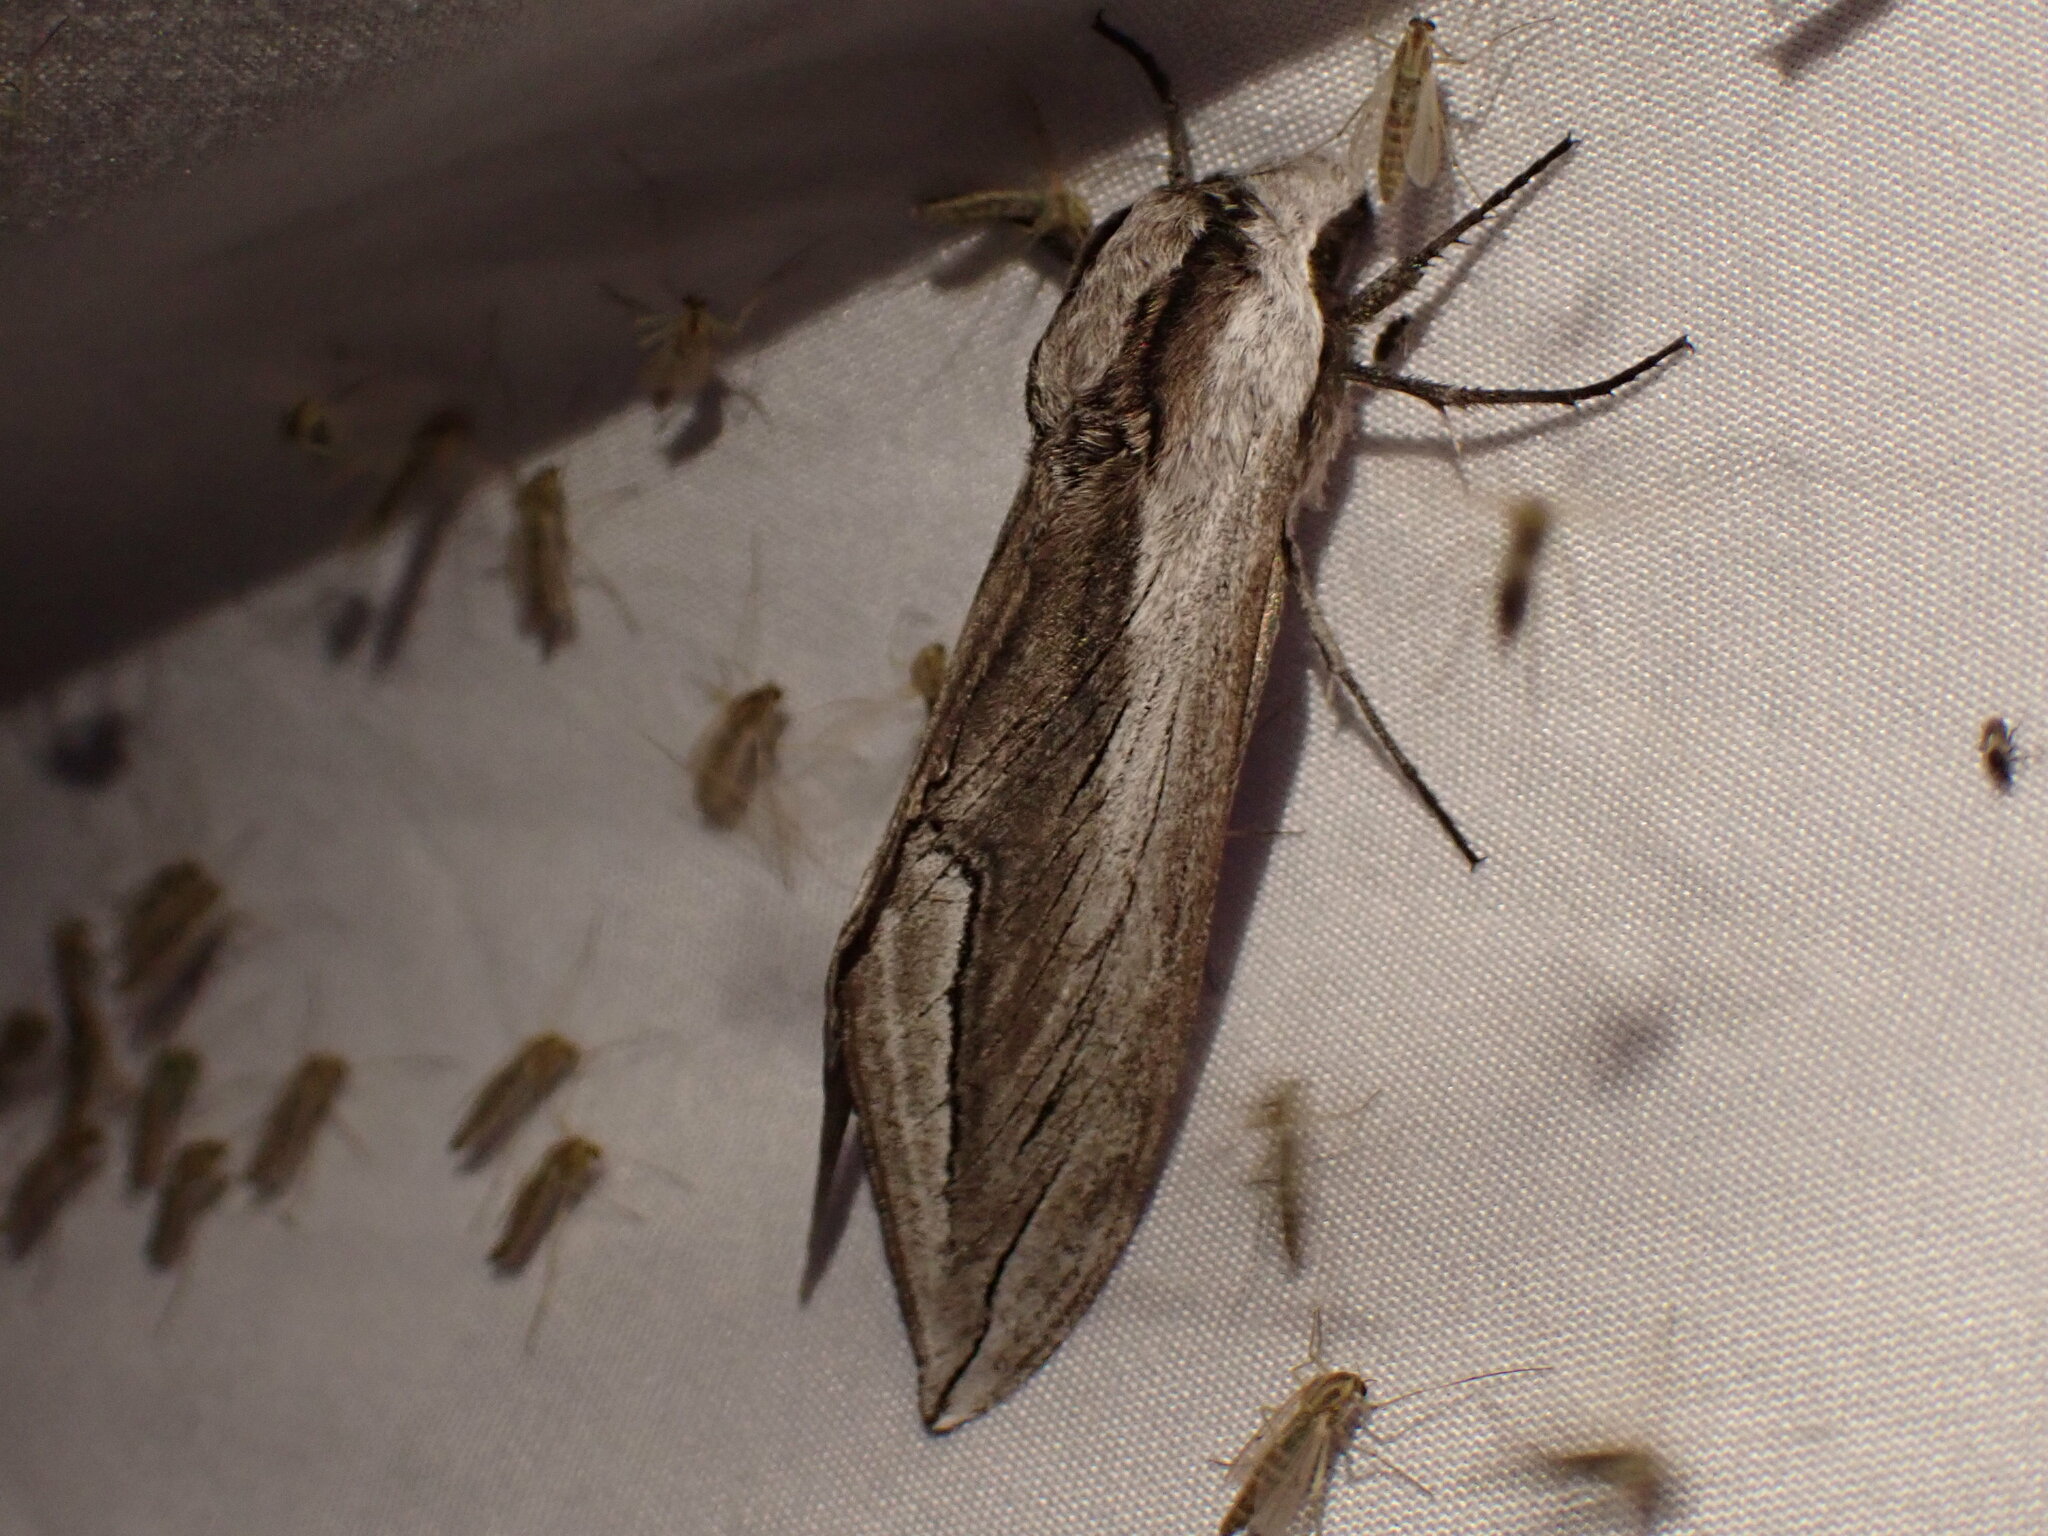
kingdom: Animalia
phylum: Arthropoda
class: Insecta
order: Lepidoptera
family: Sphingidae
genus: Sphinx
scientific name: Sphinx vashti
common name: Snowberry sphinx
